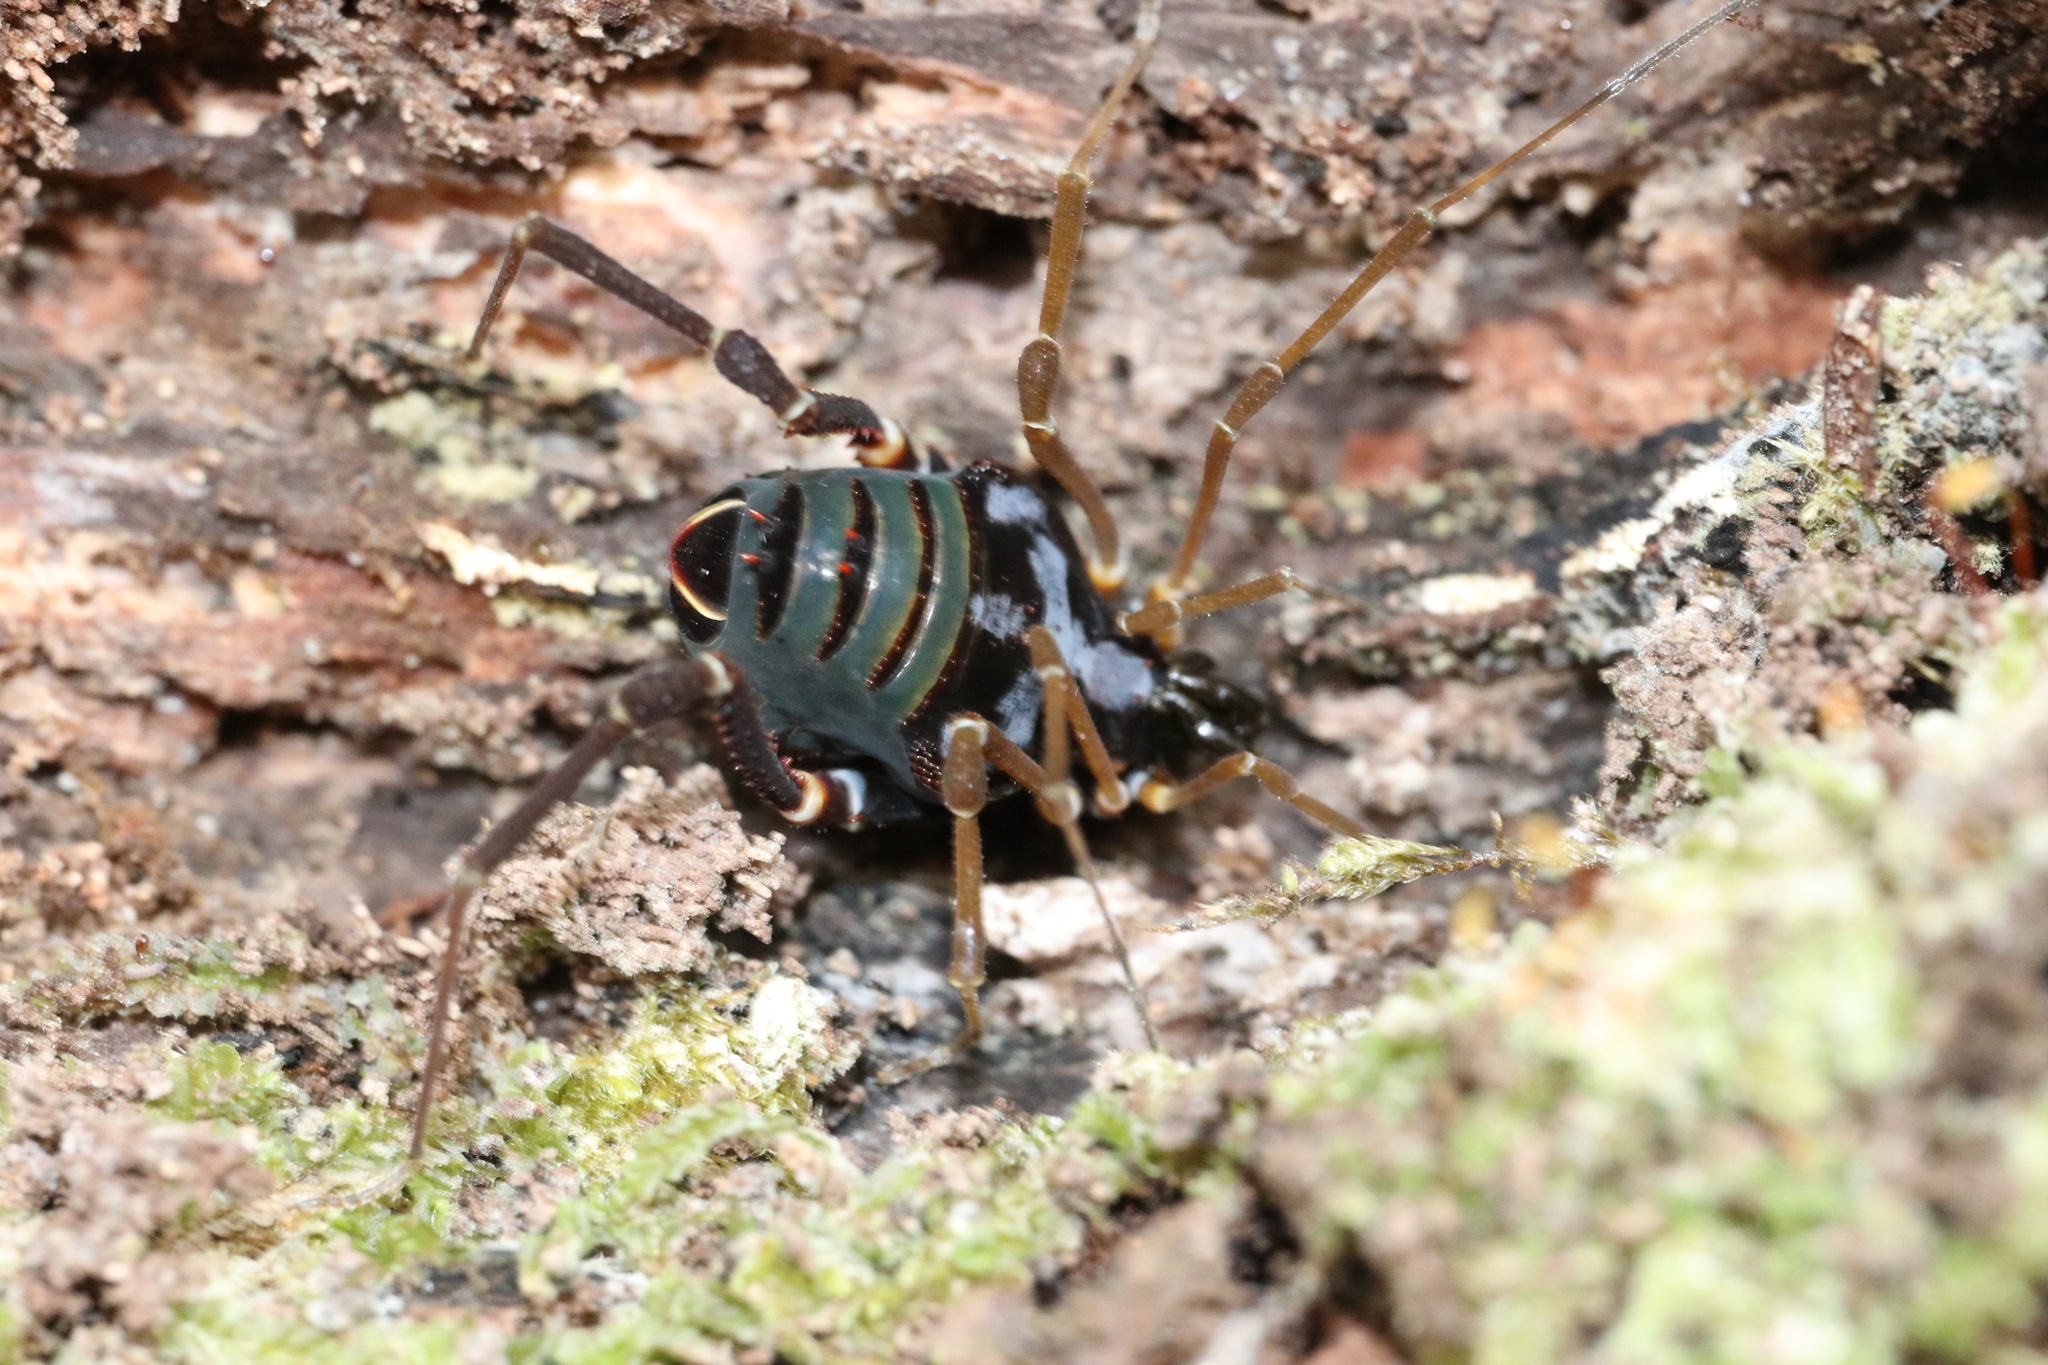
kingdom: Animalia
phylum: Arthropoda
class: Arachnida
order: Opiliones
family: Gonyleptidae
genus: Sadocus
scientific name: Sadocus asperatus
